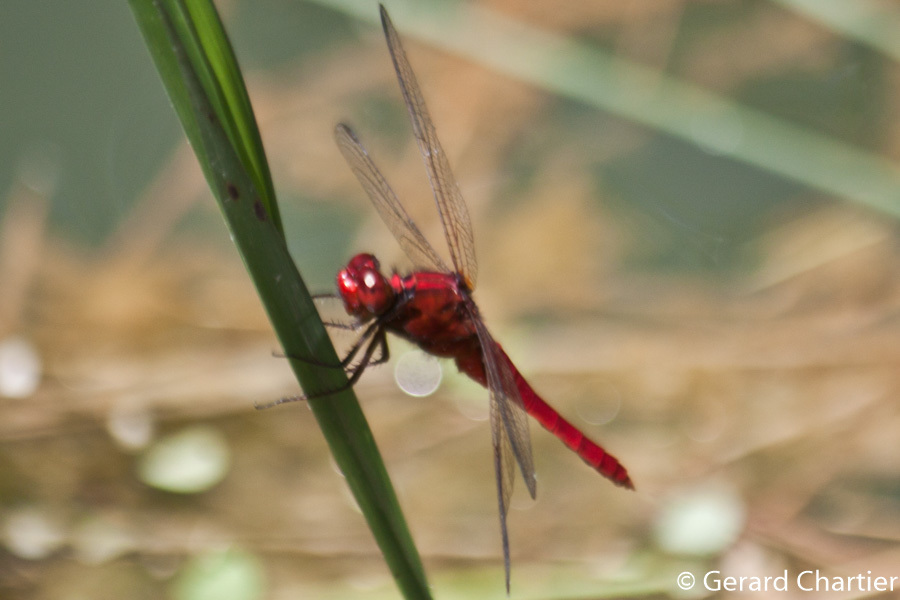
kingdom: Animalia
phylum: Arthropoda
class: Insecta
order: Odonata
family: Libellulidae
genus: Rhodothemis
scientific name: Rhodothemis rufa
